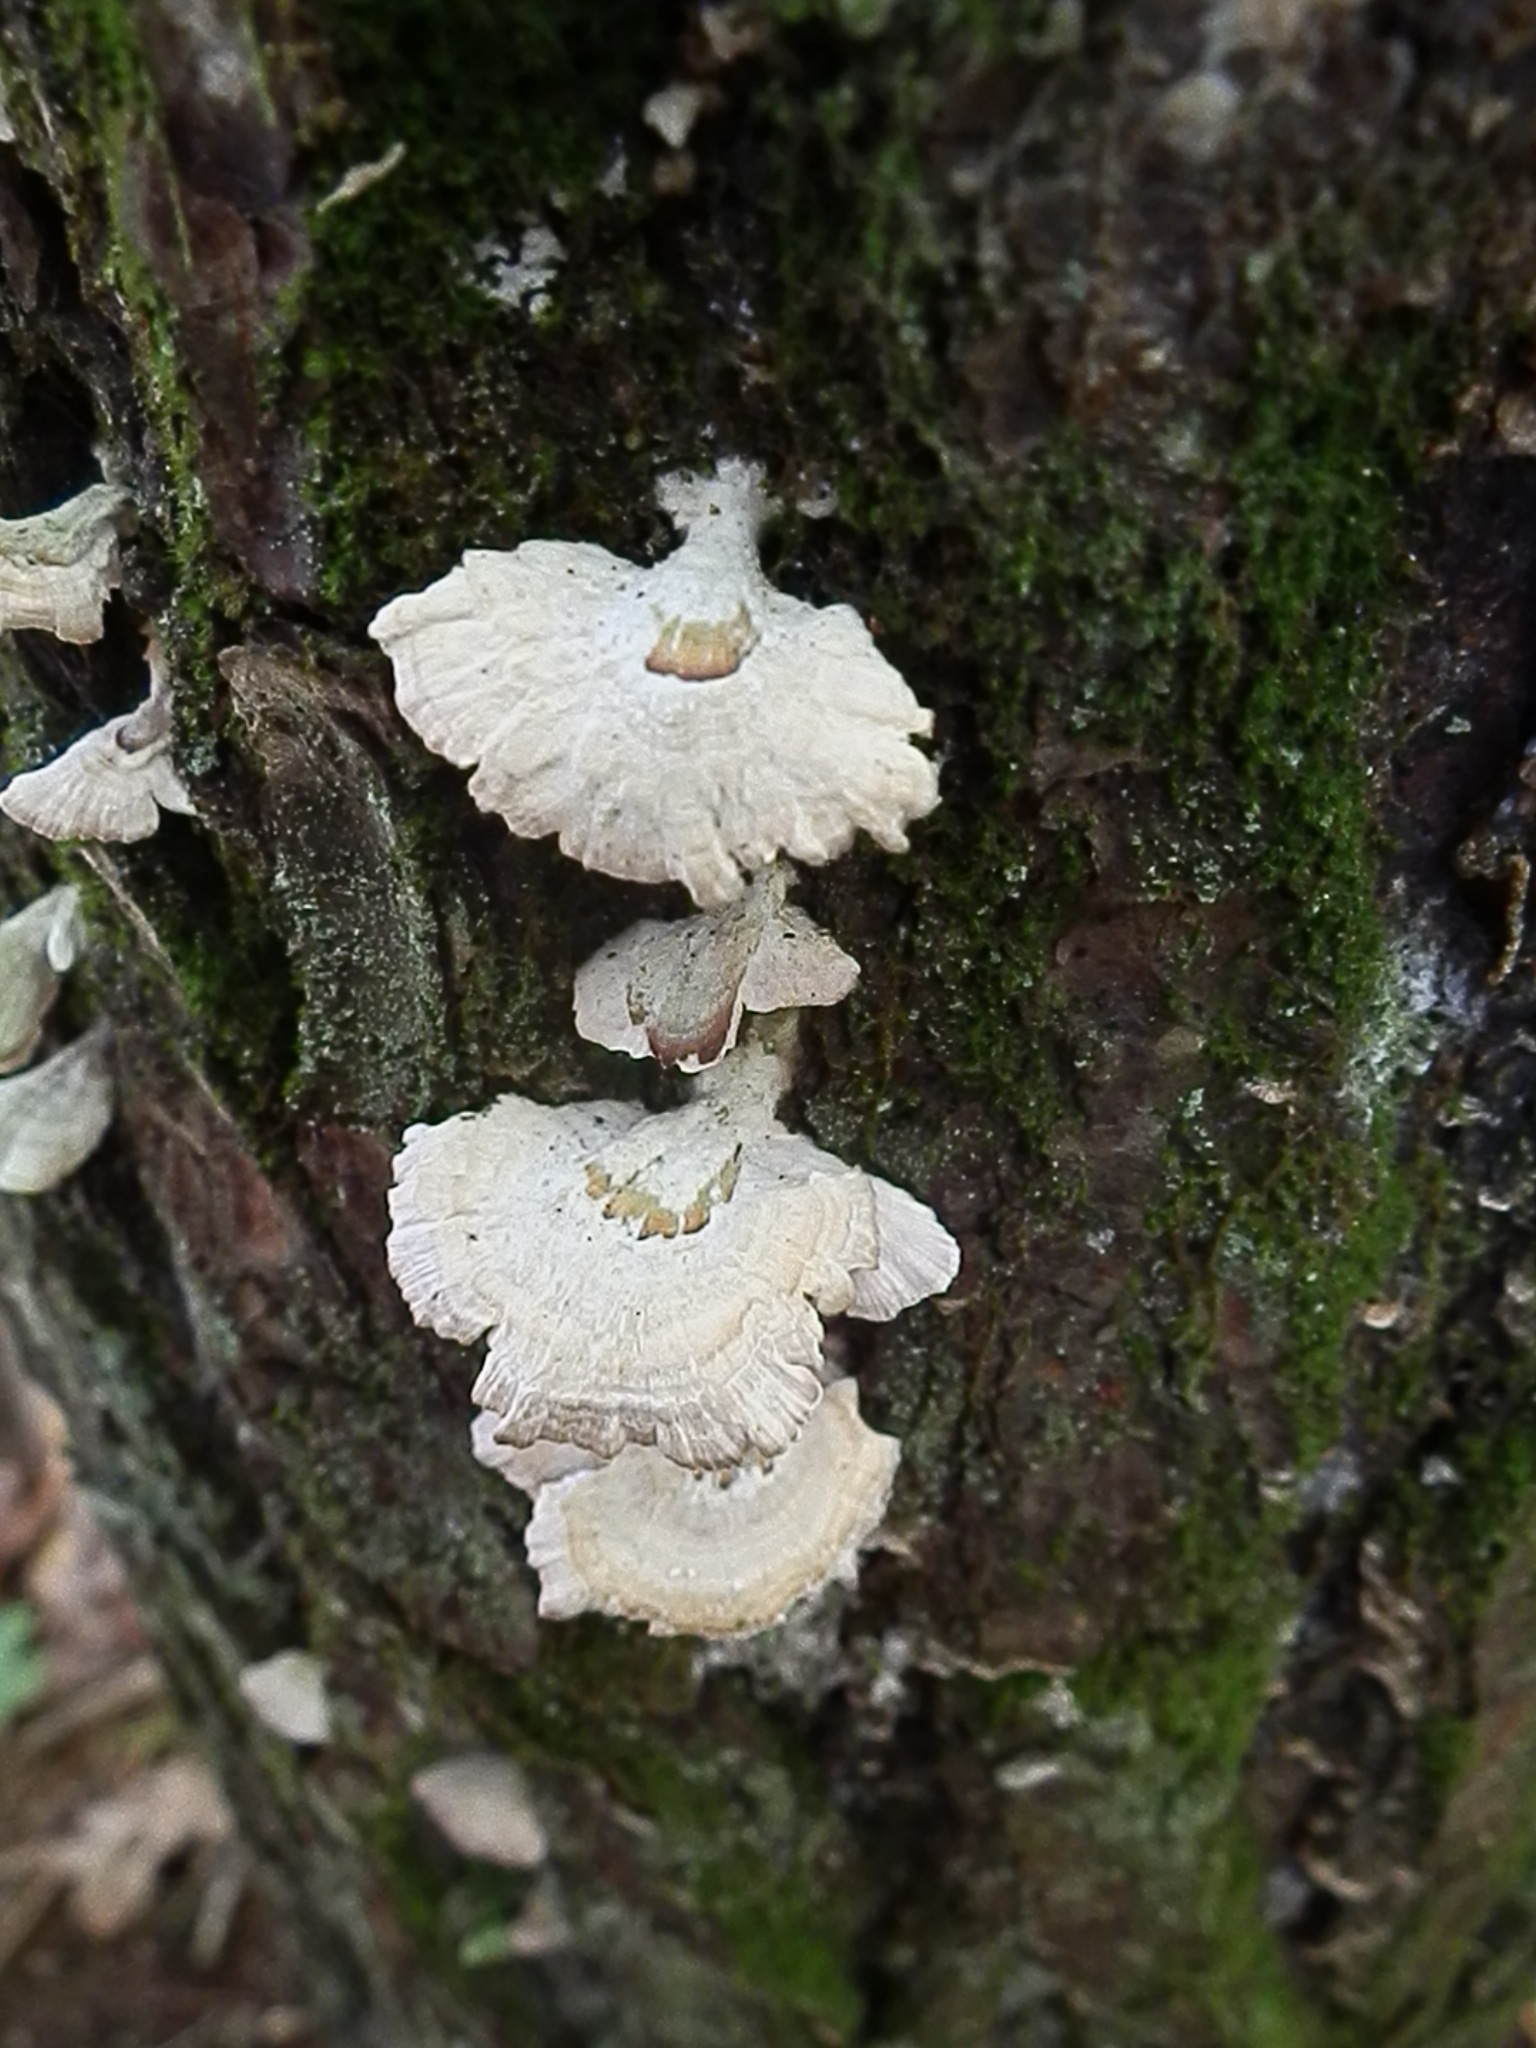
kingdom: Fungi
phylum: Basidiomycota
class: Agaricomycetes
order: Hymenochaetales
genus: Trichaptum
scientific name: Trichaptum fuscoviolaceum
